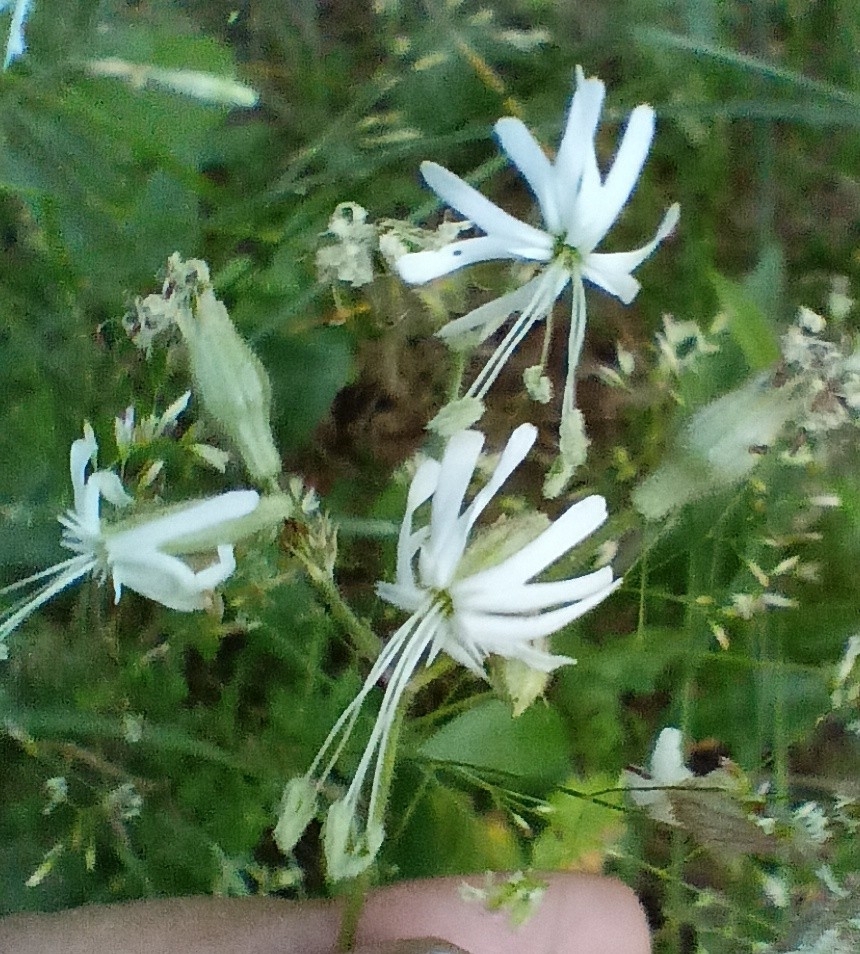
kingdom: Plantae
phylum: Tracheophyta
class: Magnoliopsida
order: Caryophyllales
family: Caryophyllaceae
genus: Silene
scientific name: Silene nutans
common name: Nottingham catchfly
